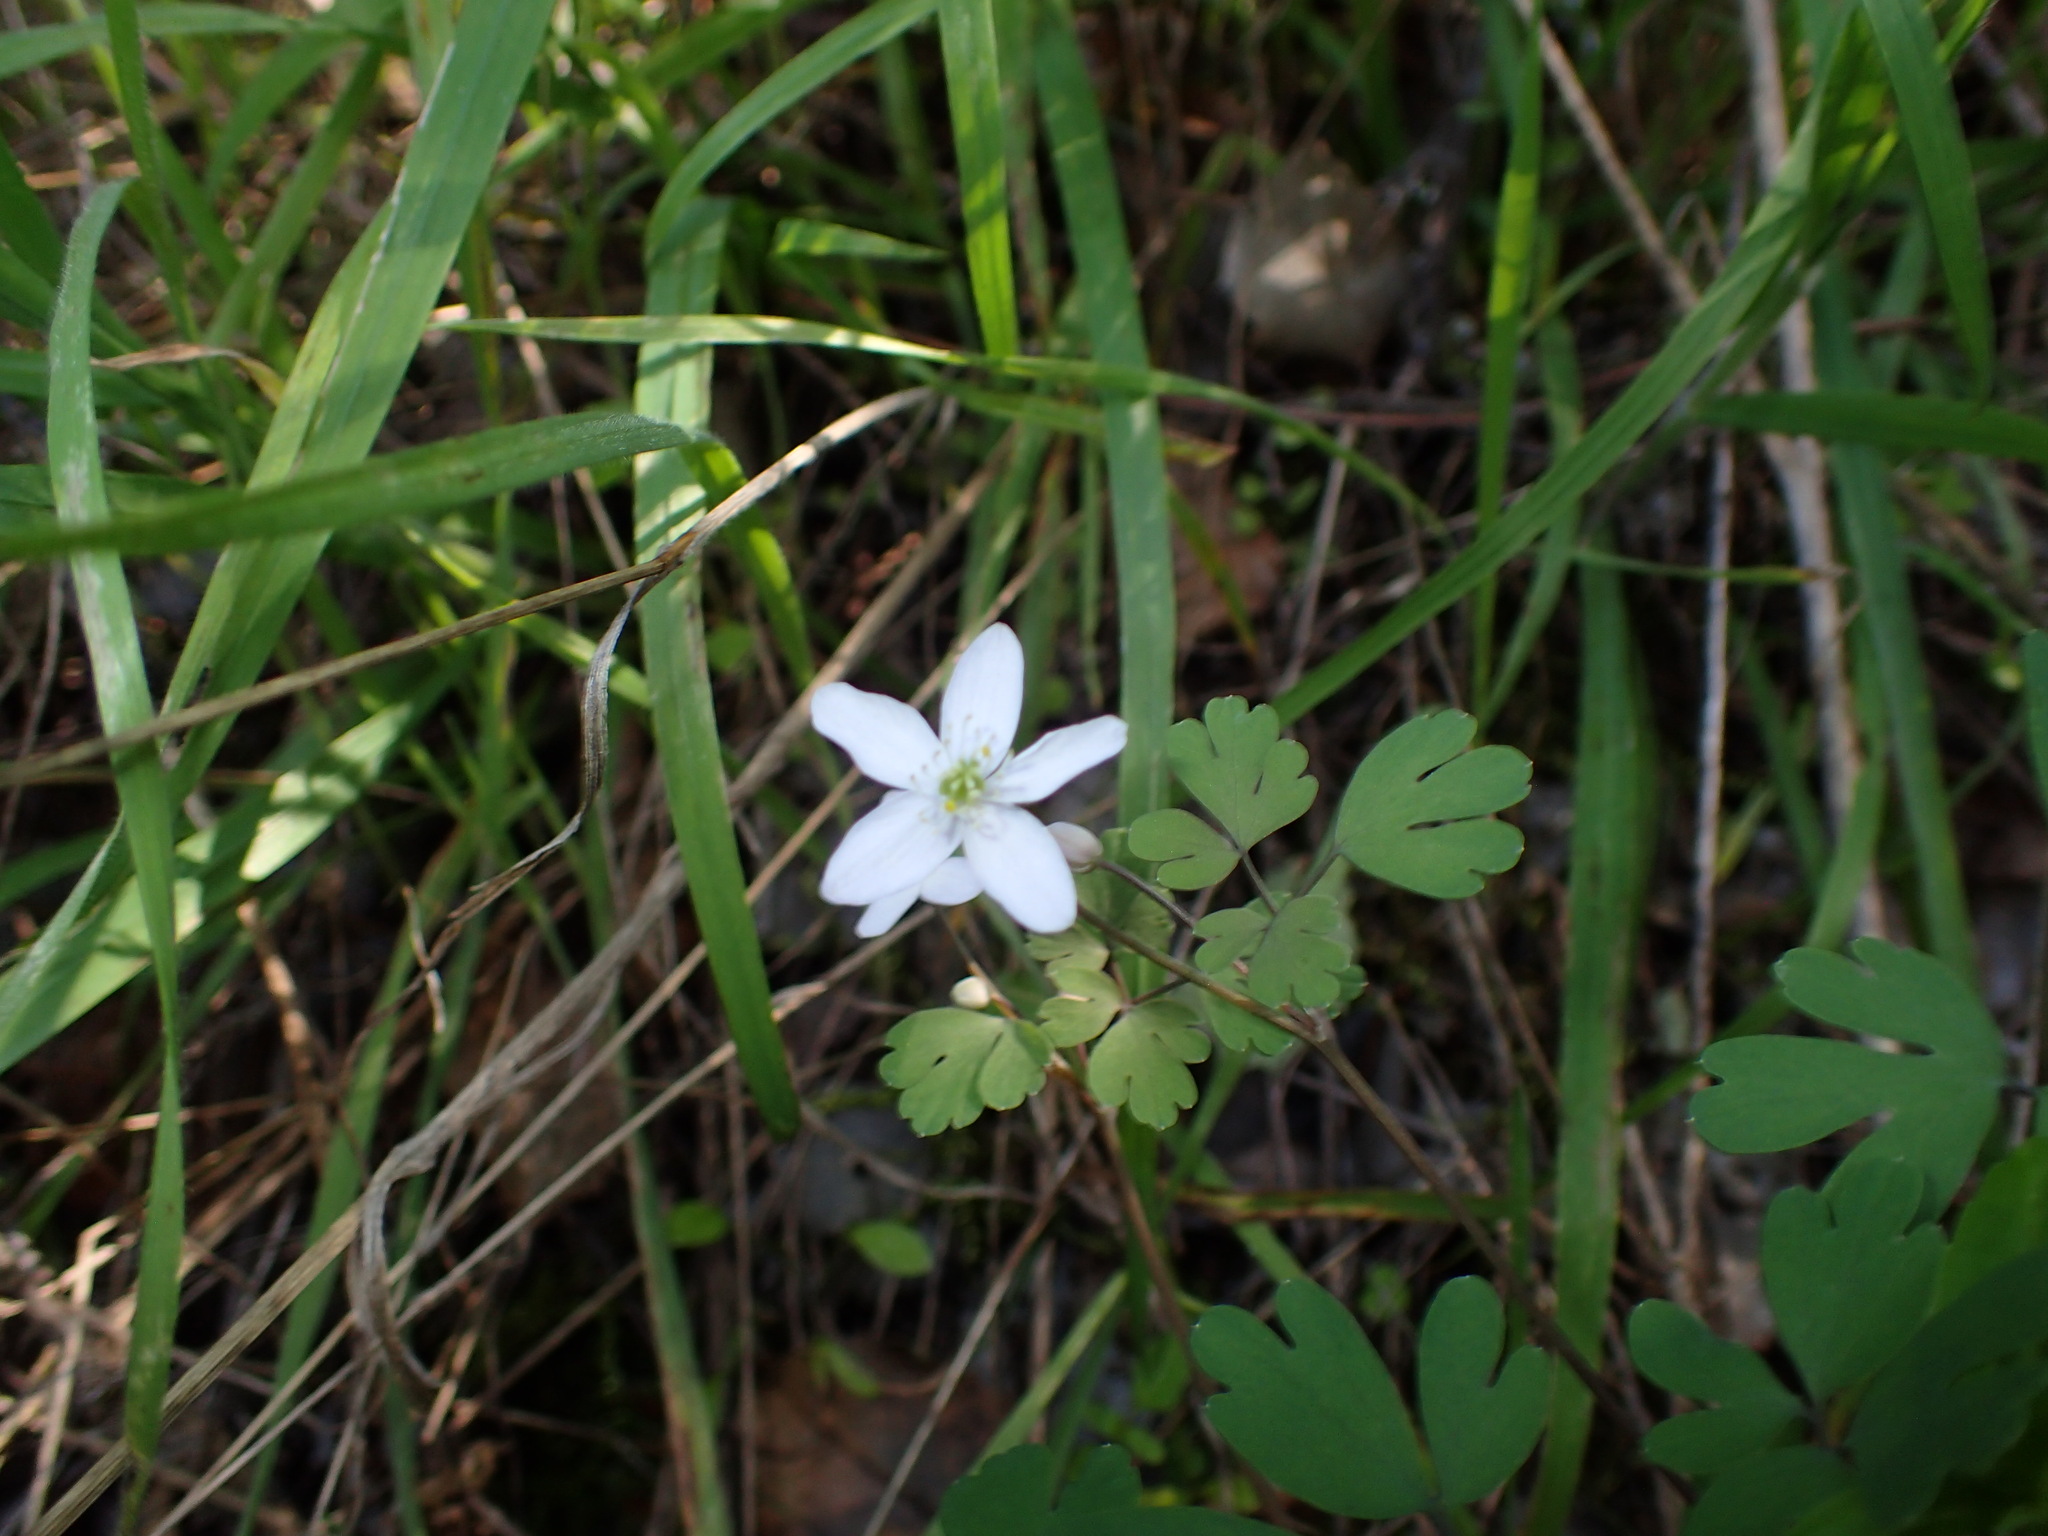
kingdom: Plantae
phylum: Tracheophyta
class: Magnoliopsida
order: Ranunculales
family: Ranunculaceae
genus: Enemion
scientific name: Enemion occidentale
